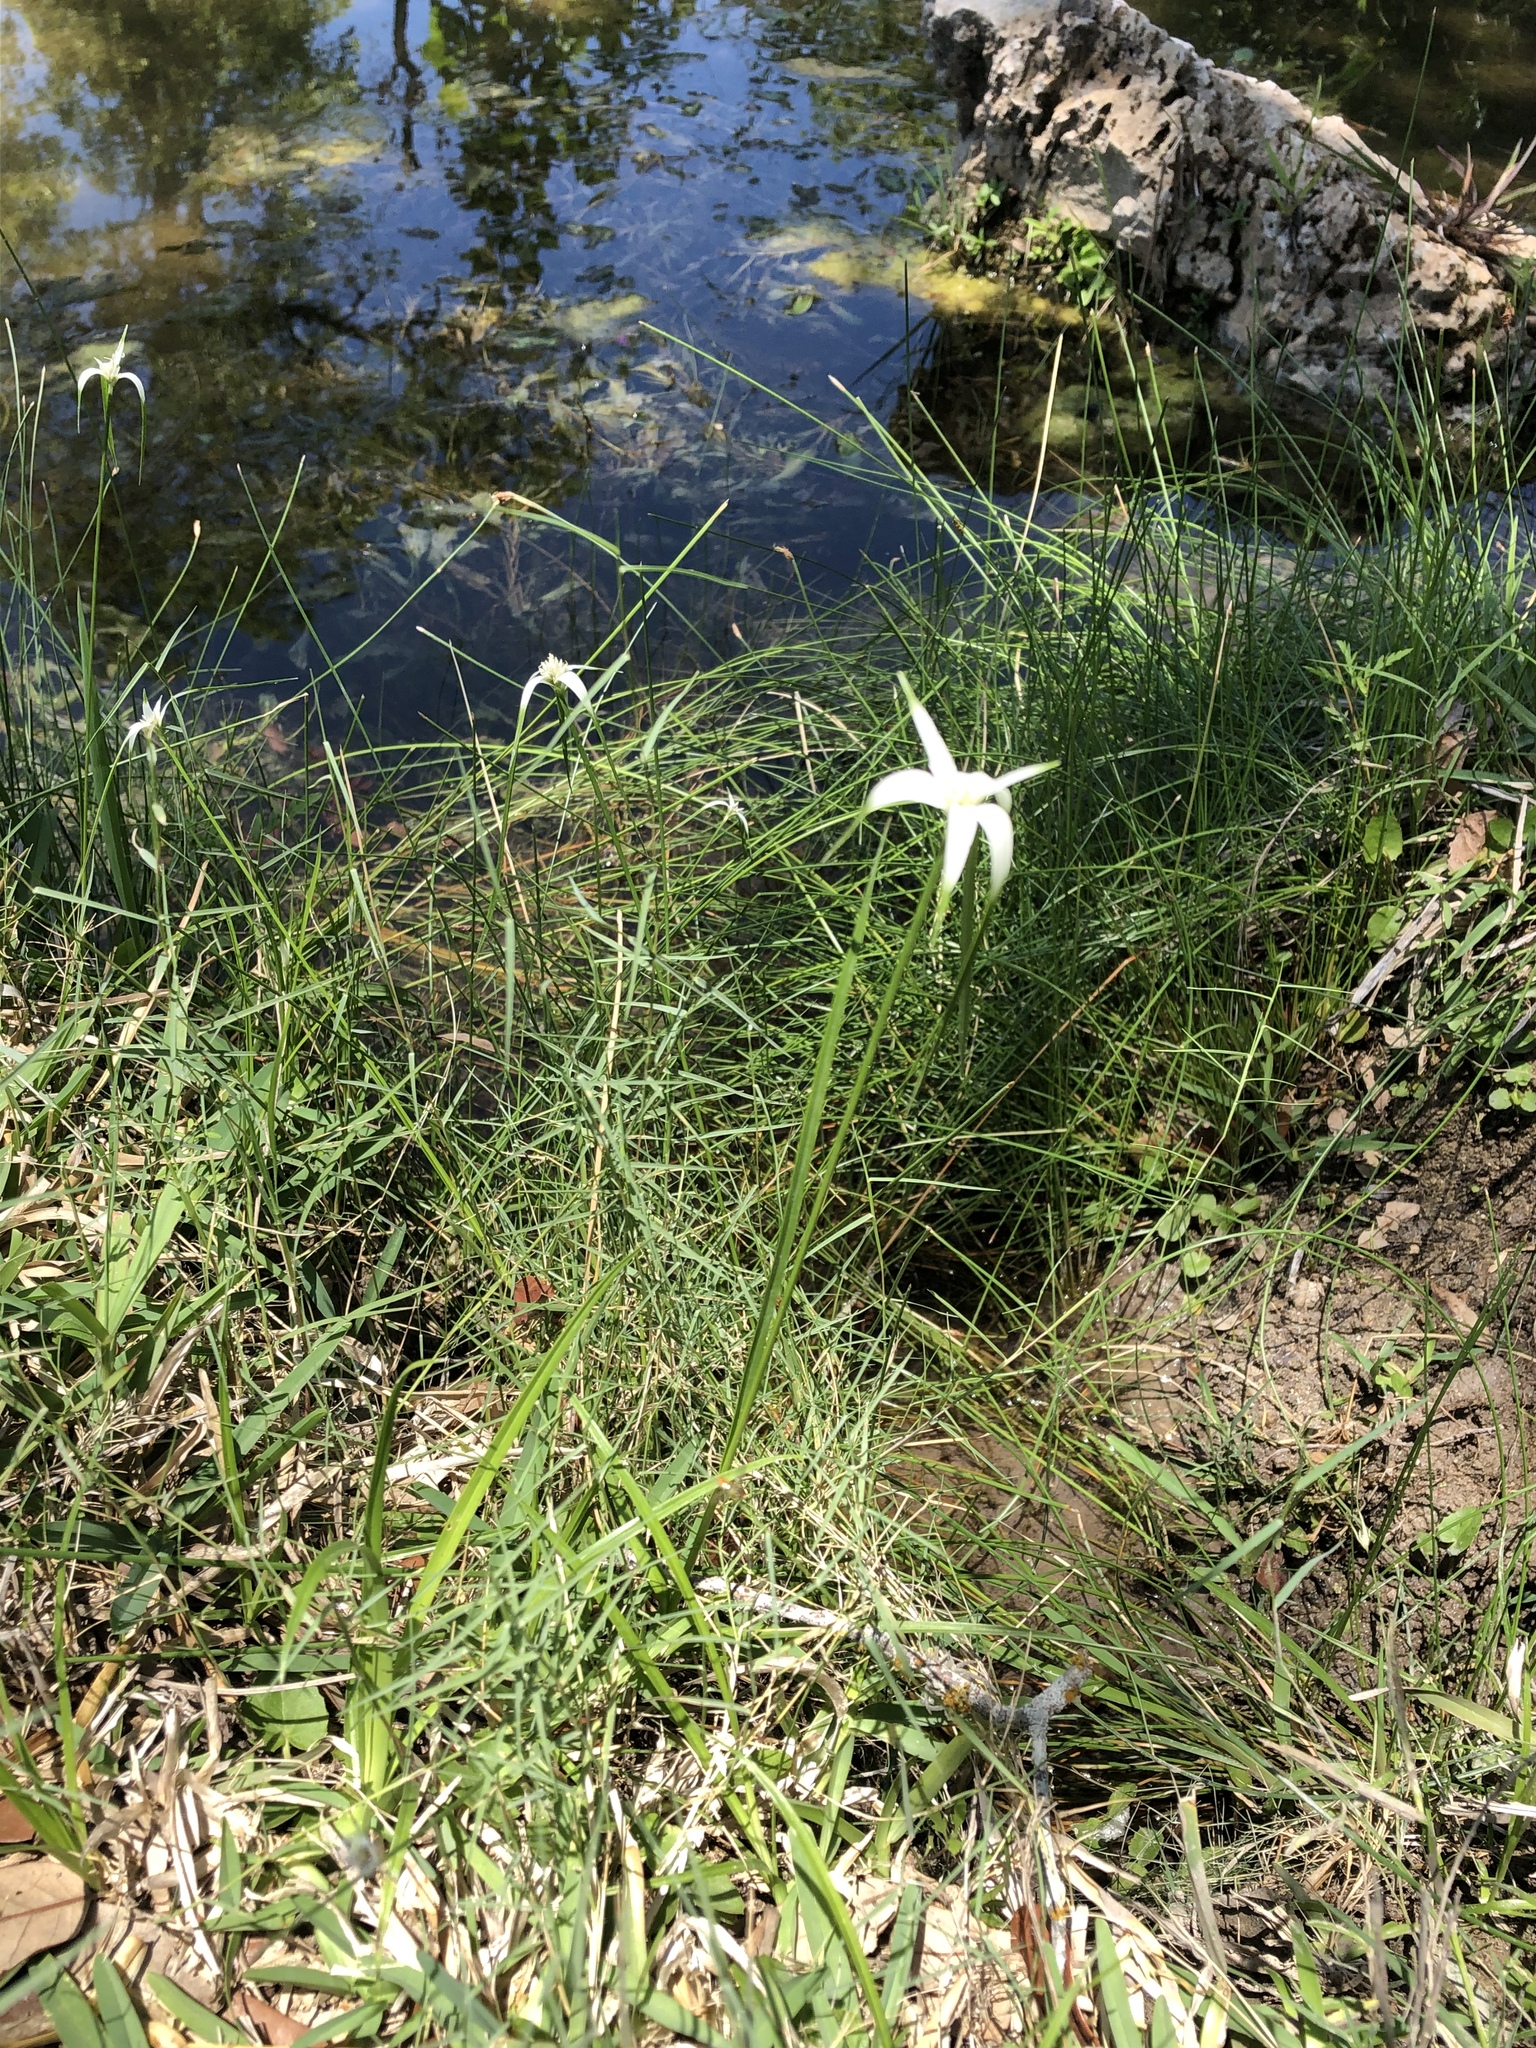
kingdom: Plantae
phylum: Tracheophyta
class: Liliopsida
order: Poales
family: Cyperaceae
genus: Rhynchospora
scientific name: Rhynchospora colorata
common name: Star sedge
